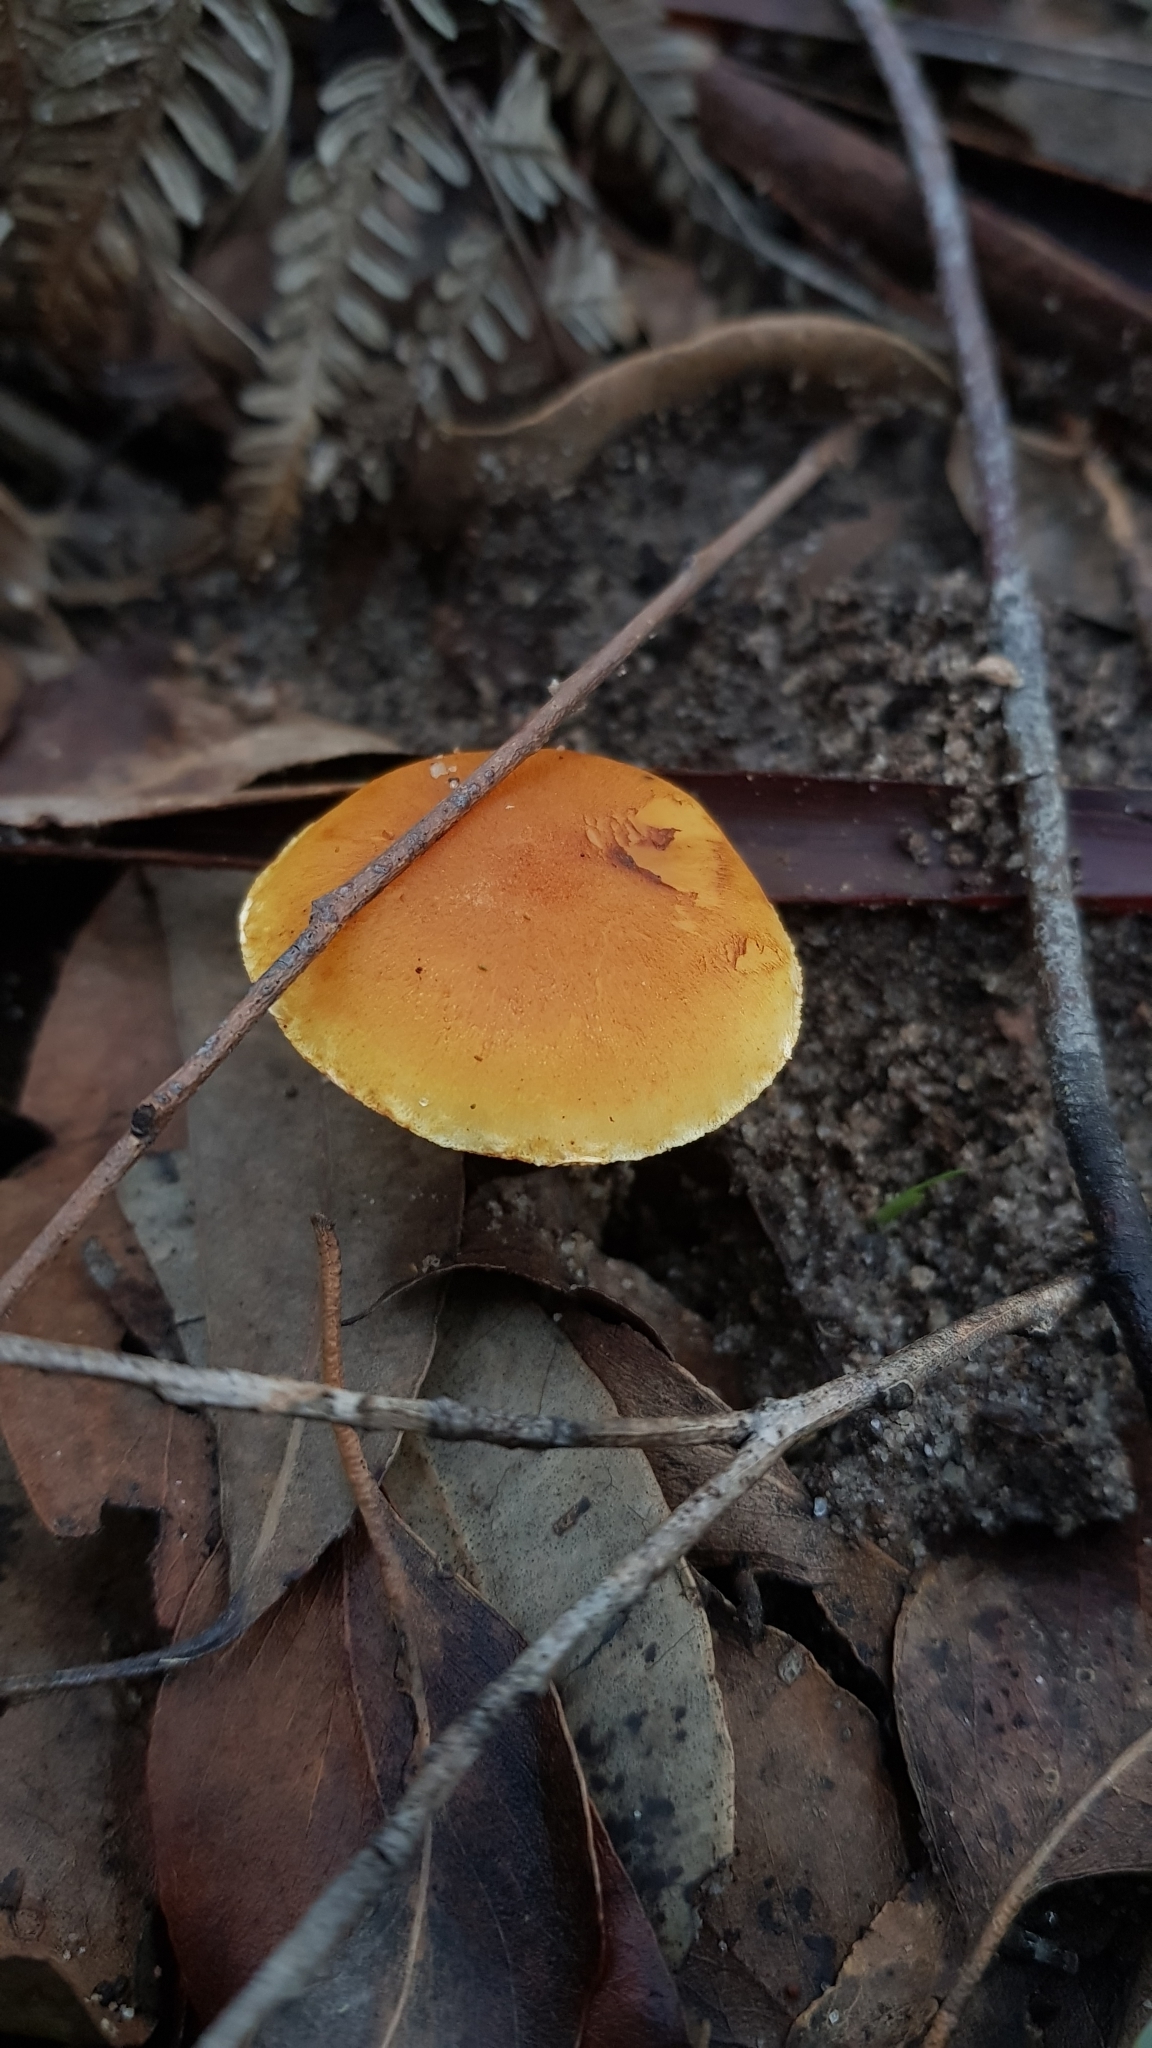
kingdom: Fungi
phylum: Basidiomycota
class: Agaricomycetes
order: Agaricales
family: Hymenogastraceae
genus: Gymnopilus
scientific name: Gymnopilus allantopus
